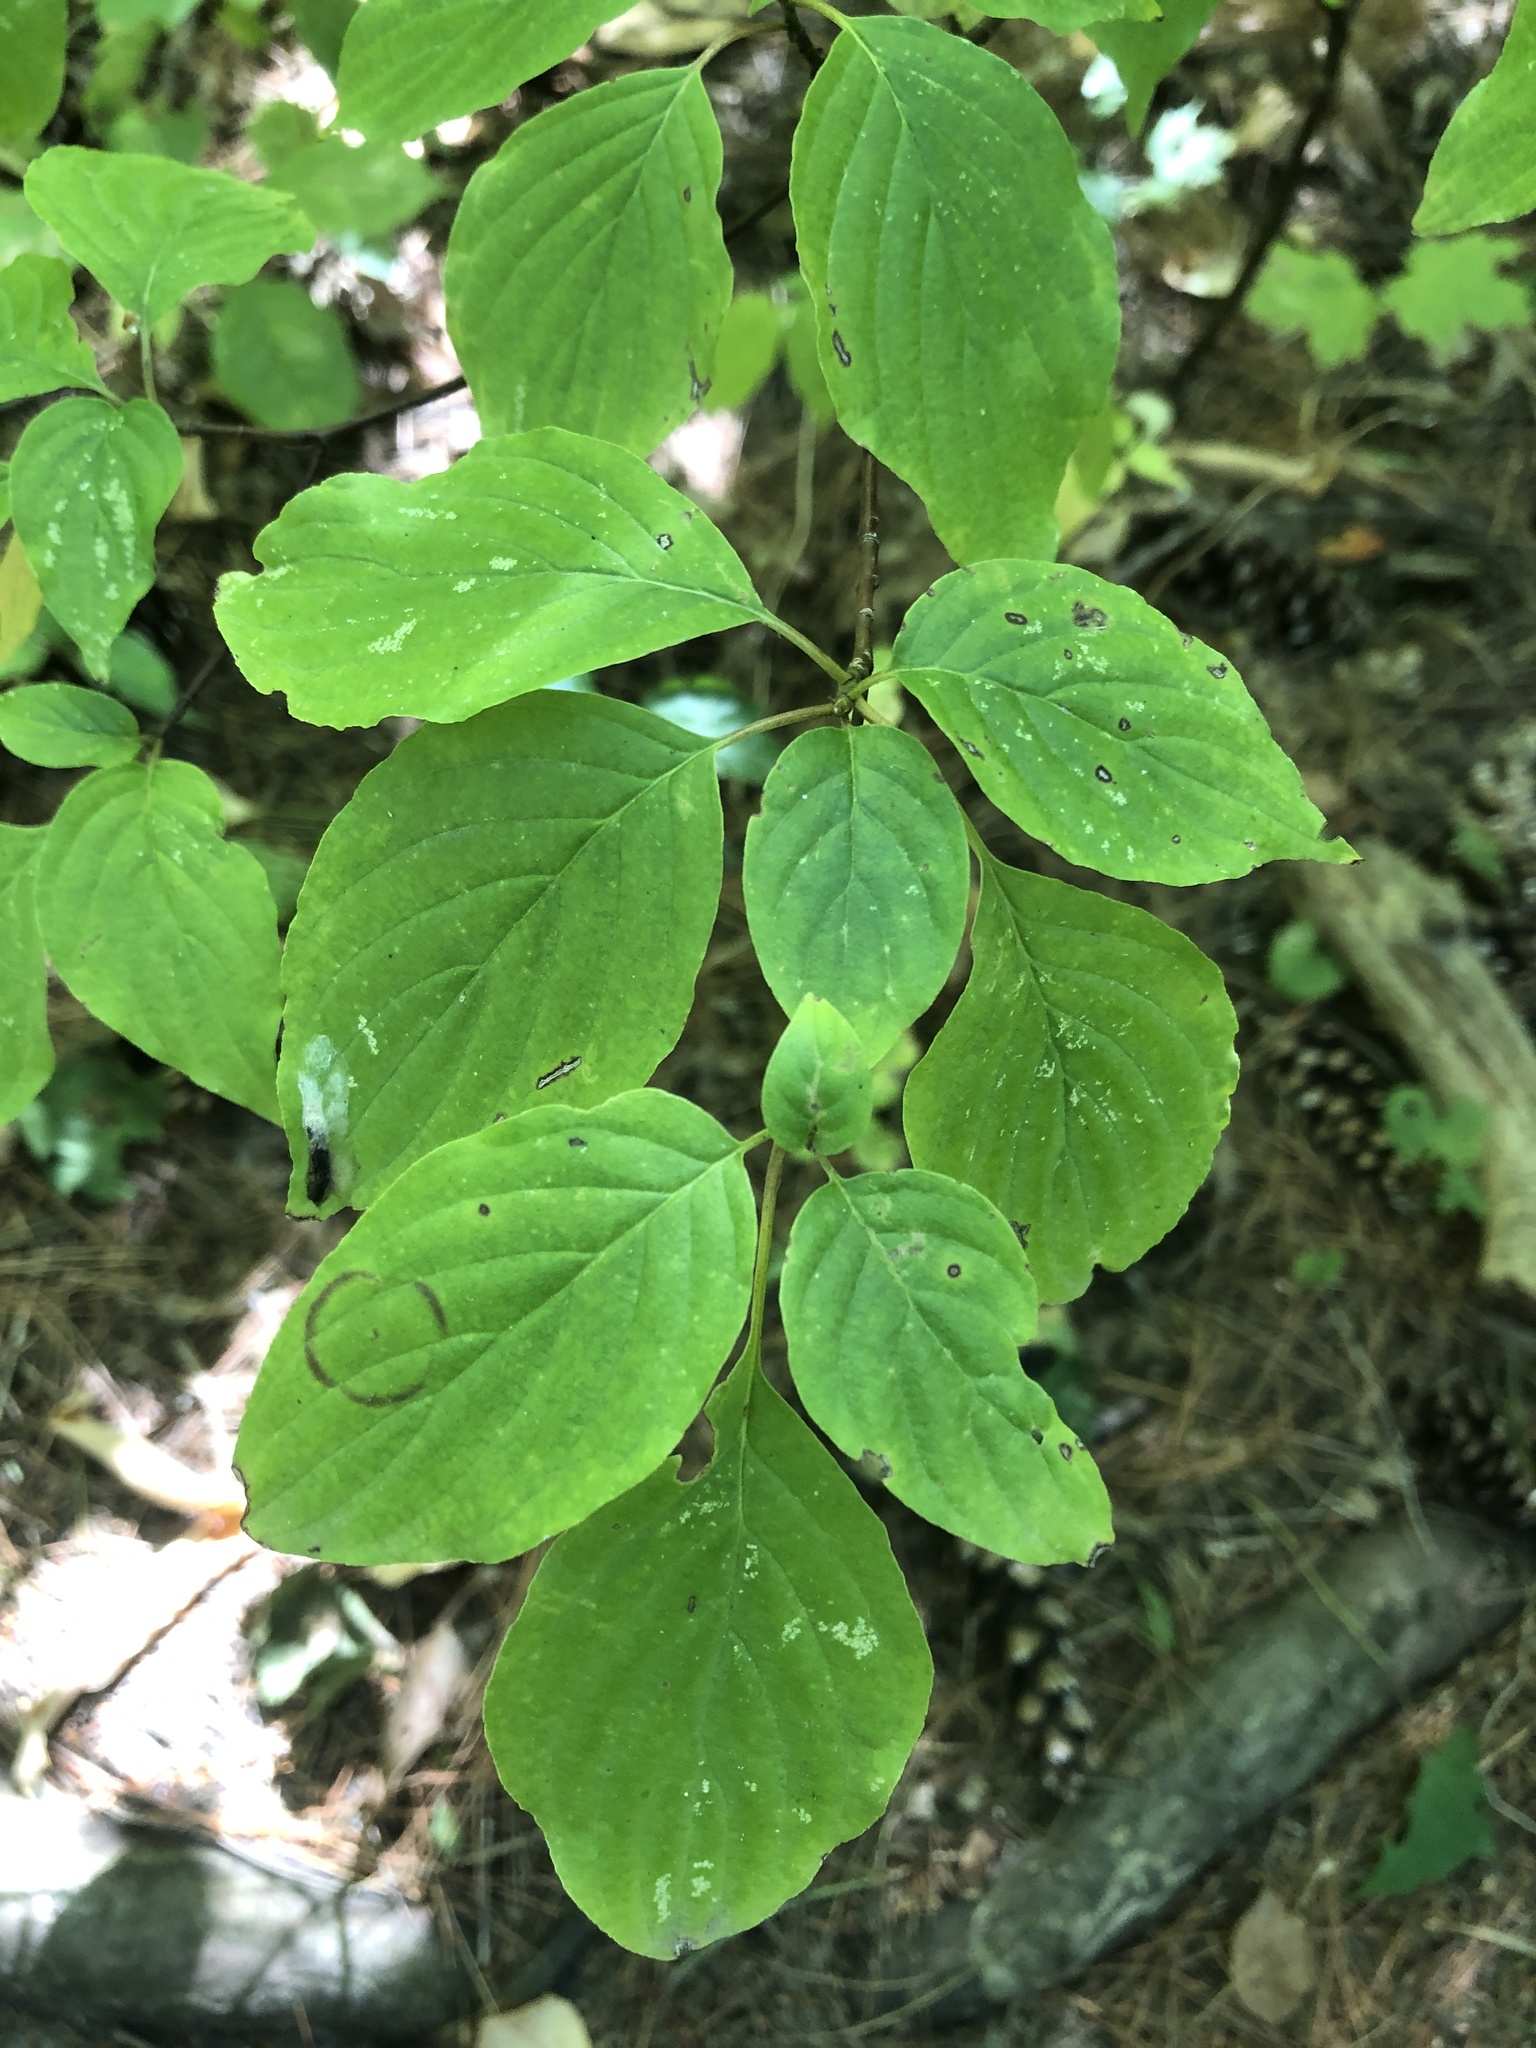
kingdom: Plantae
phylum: Tracheophyta
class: Magnoliopsida
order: Cornales
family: Cornaceae
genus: Cornus
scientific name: Cornus alternifolia
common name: Pagoda dogwood
